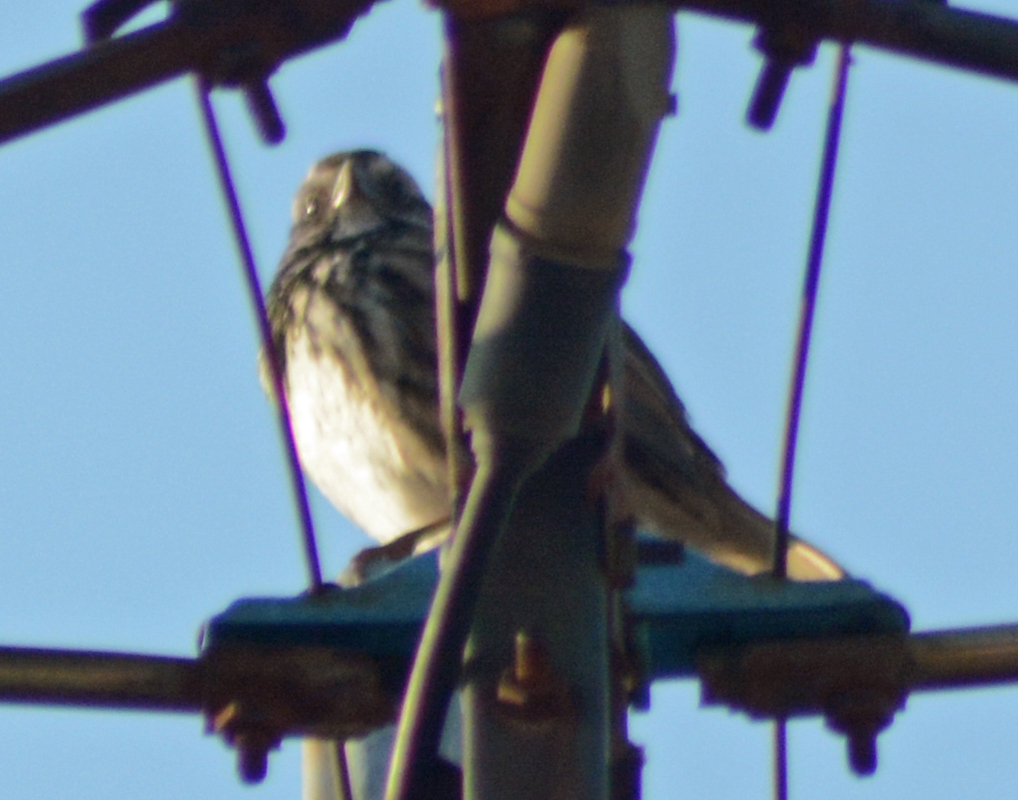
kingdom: Animalia
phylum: Chordata
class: Aves
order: Passeriformes
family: Passerellidae
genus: Melospiza
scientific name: Melospiza melodia
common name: Song sparrow
